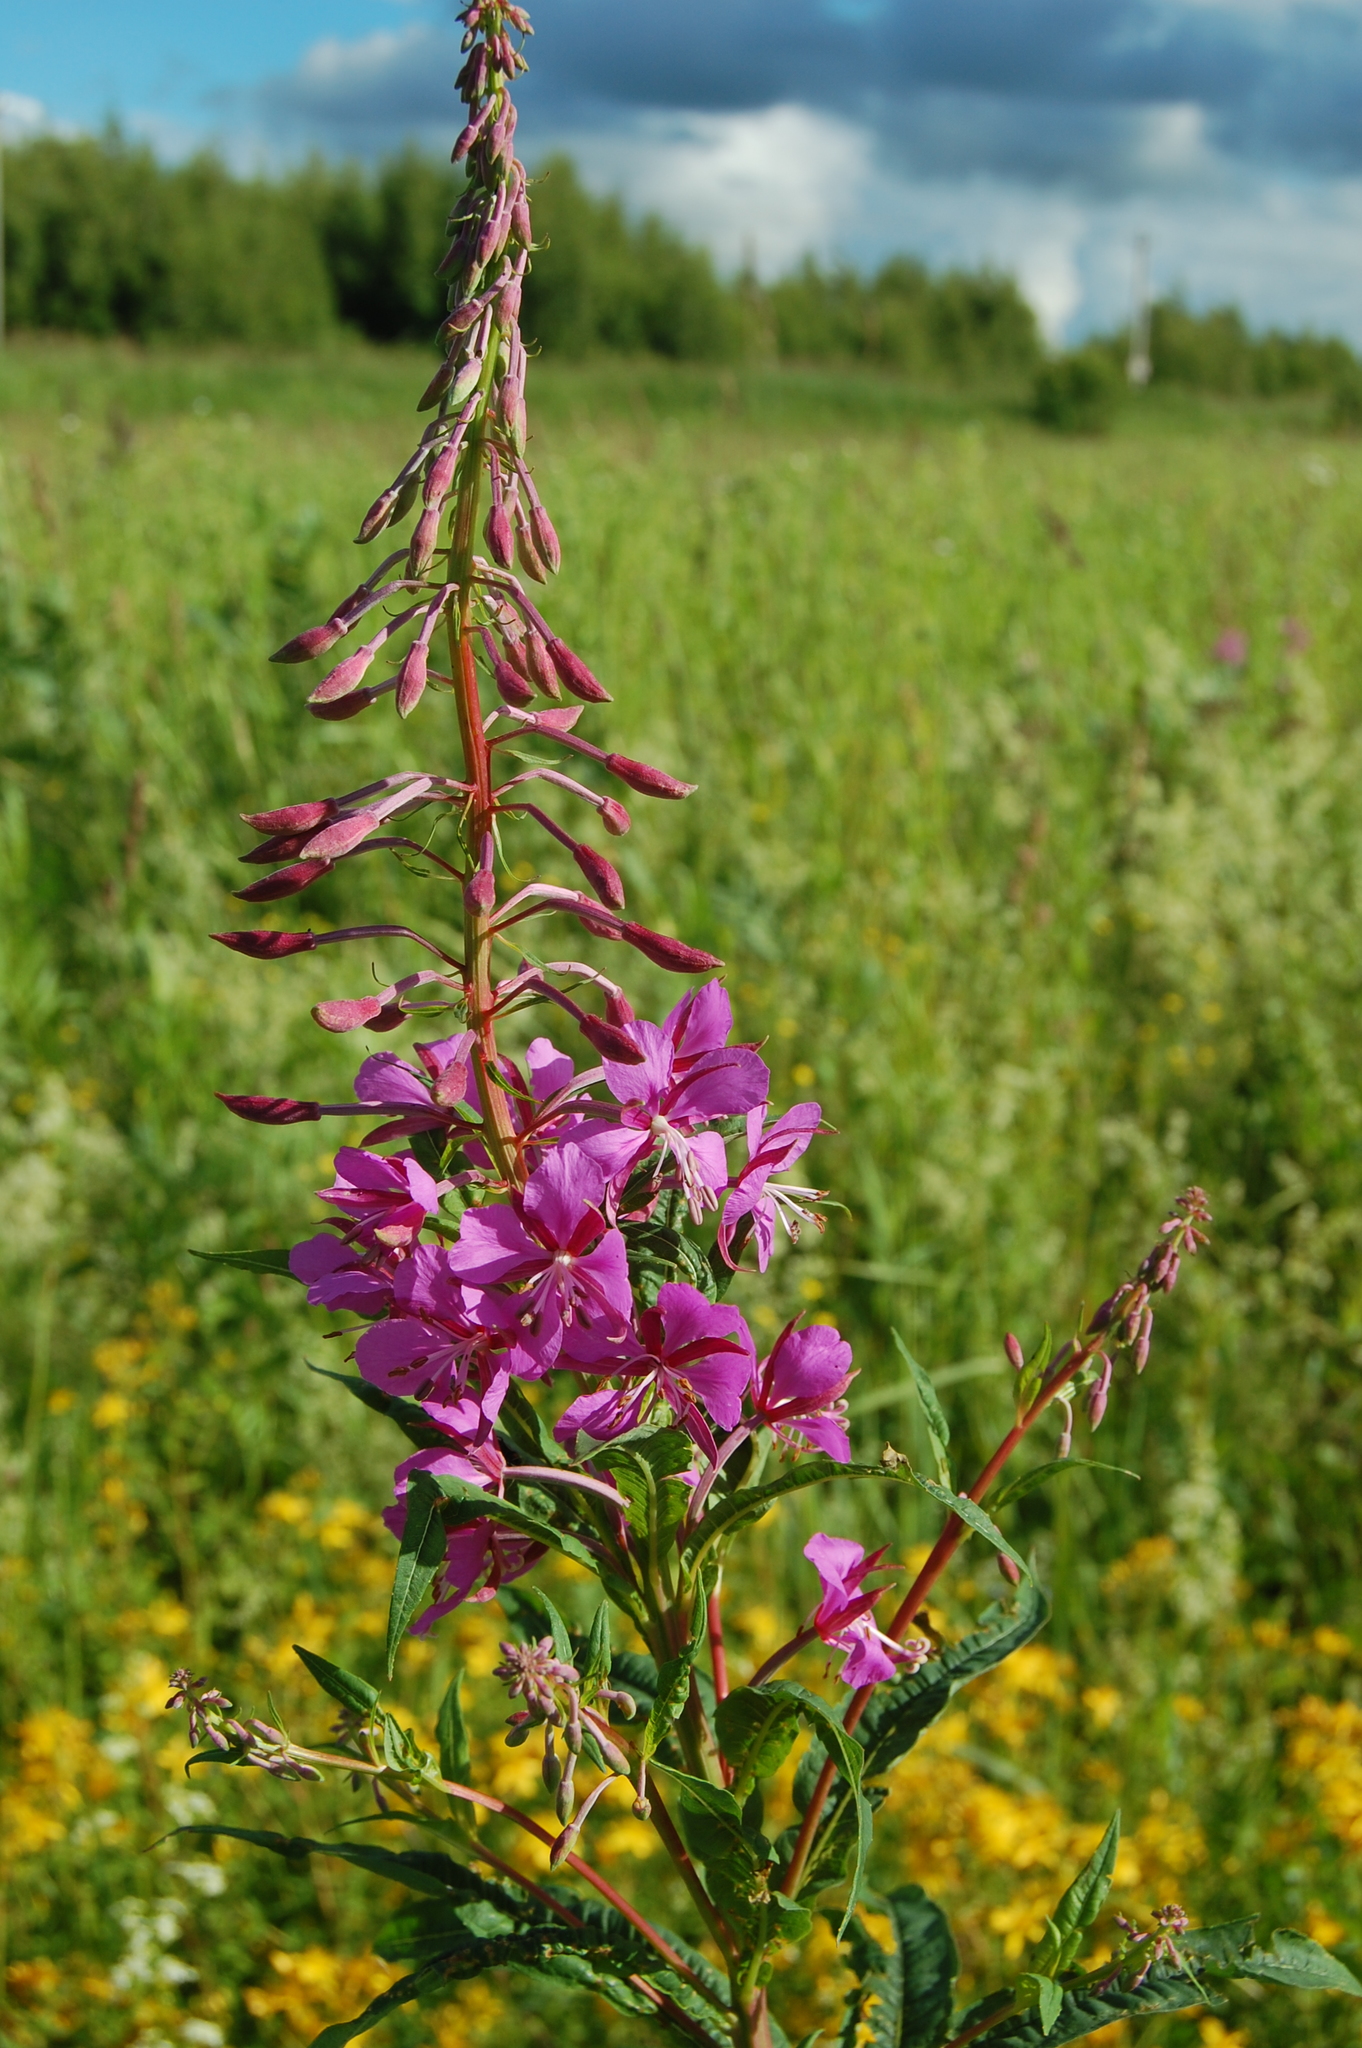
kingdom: Plantae
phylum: Tracheophyta
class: Magnoliopsida
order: Myrtales
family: Onagraceae
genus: Chamaenerion
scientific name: Chamaenerion angustifolium
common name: Fireweed
